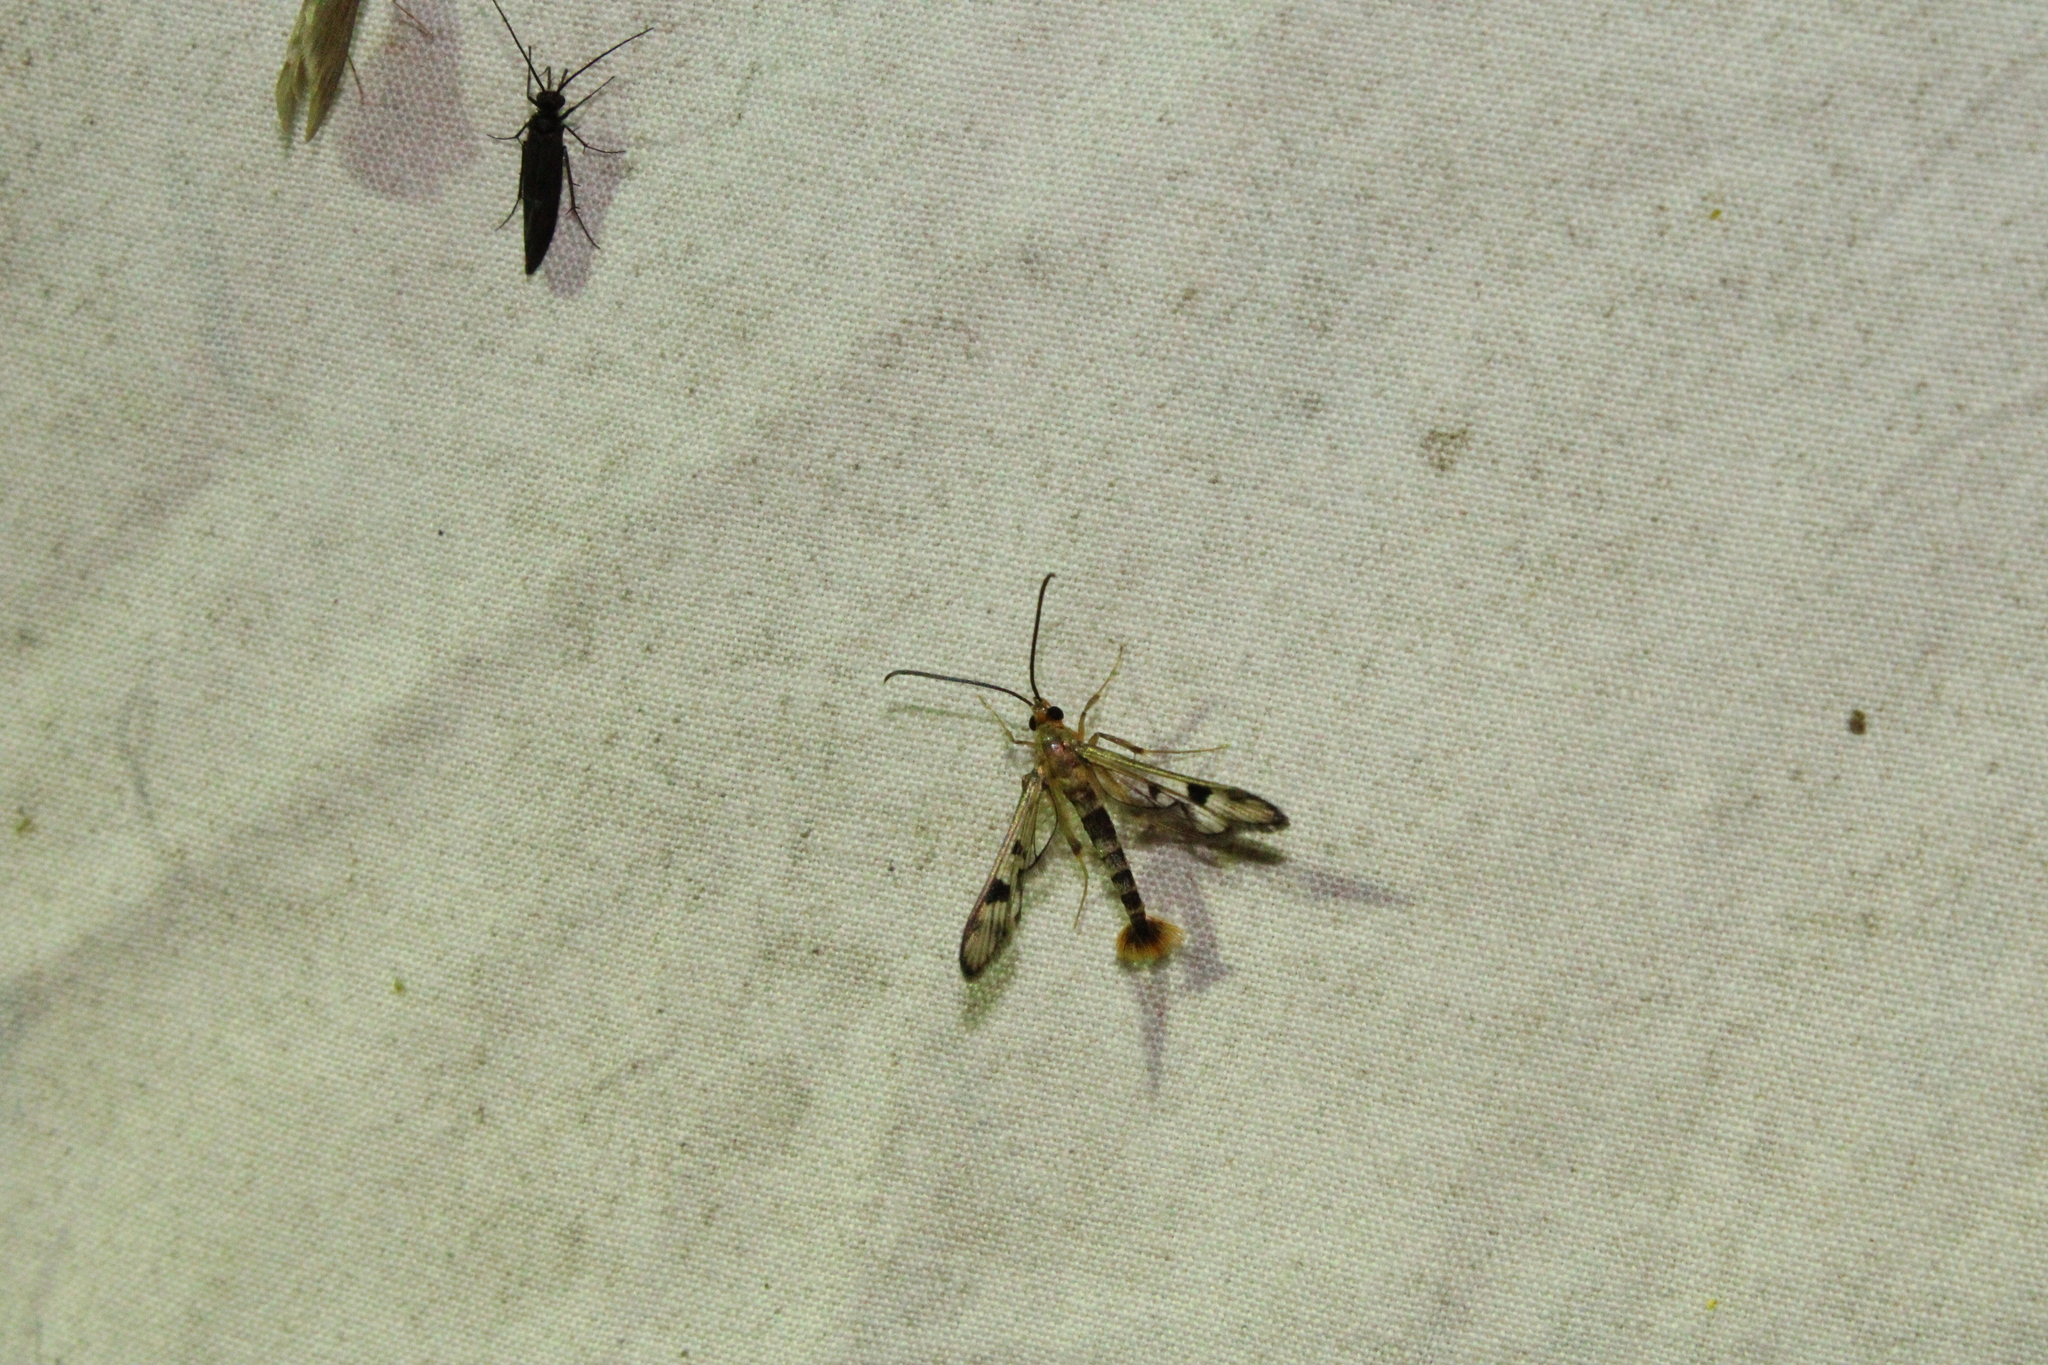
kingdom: Animalia
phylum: Arthropoda
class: Insecta
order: Lepidoptera
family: Sesiidae
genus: Synanthedon
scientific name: Synanthedon acerni
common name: Maple callus borer moth
